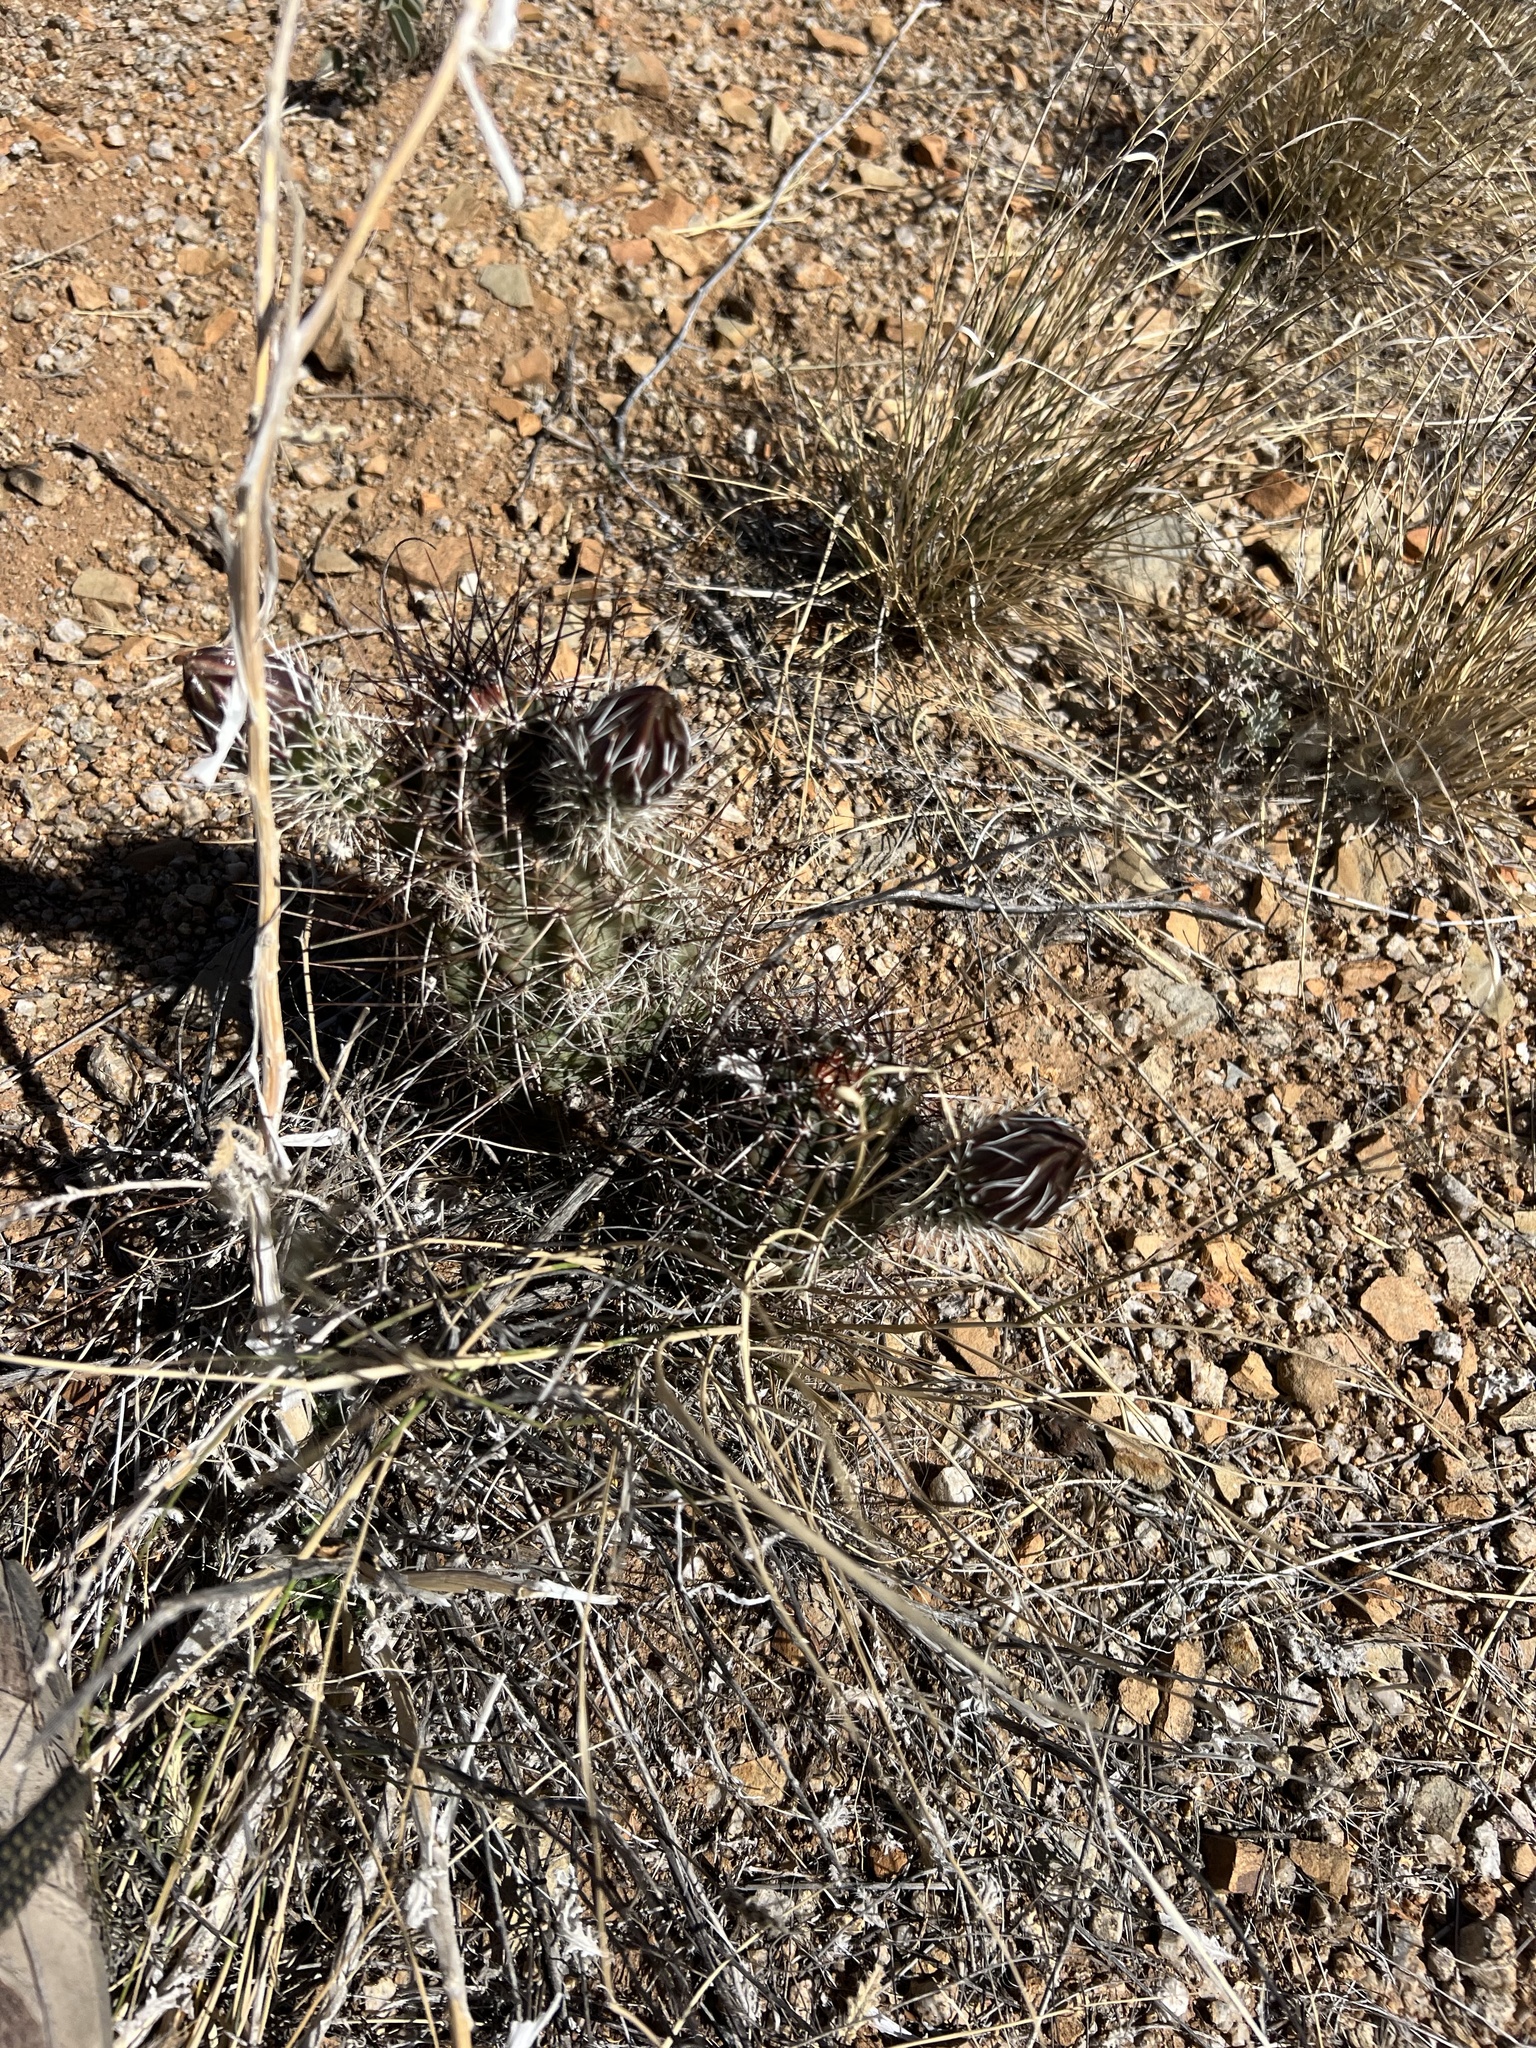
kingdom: Plantae
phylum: Tracheophyta
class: Magnoliopsida
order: Caryophyllales
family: Cactaceae
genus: Echinocereus
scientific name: Echinocereus fendleri
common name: Fendler's hedgehog cactus
